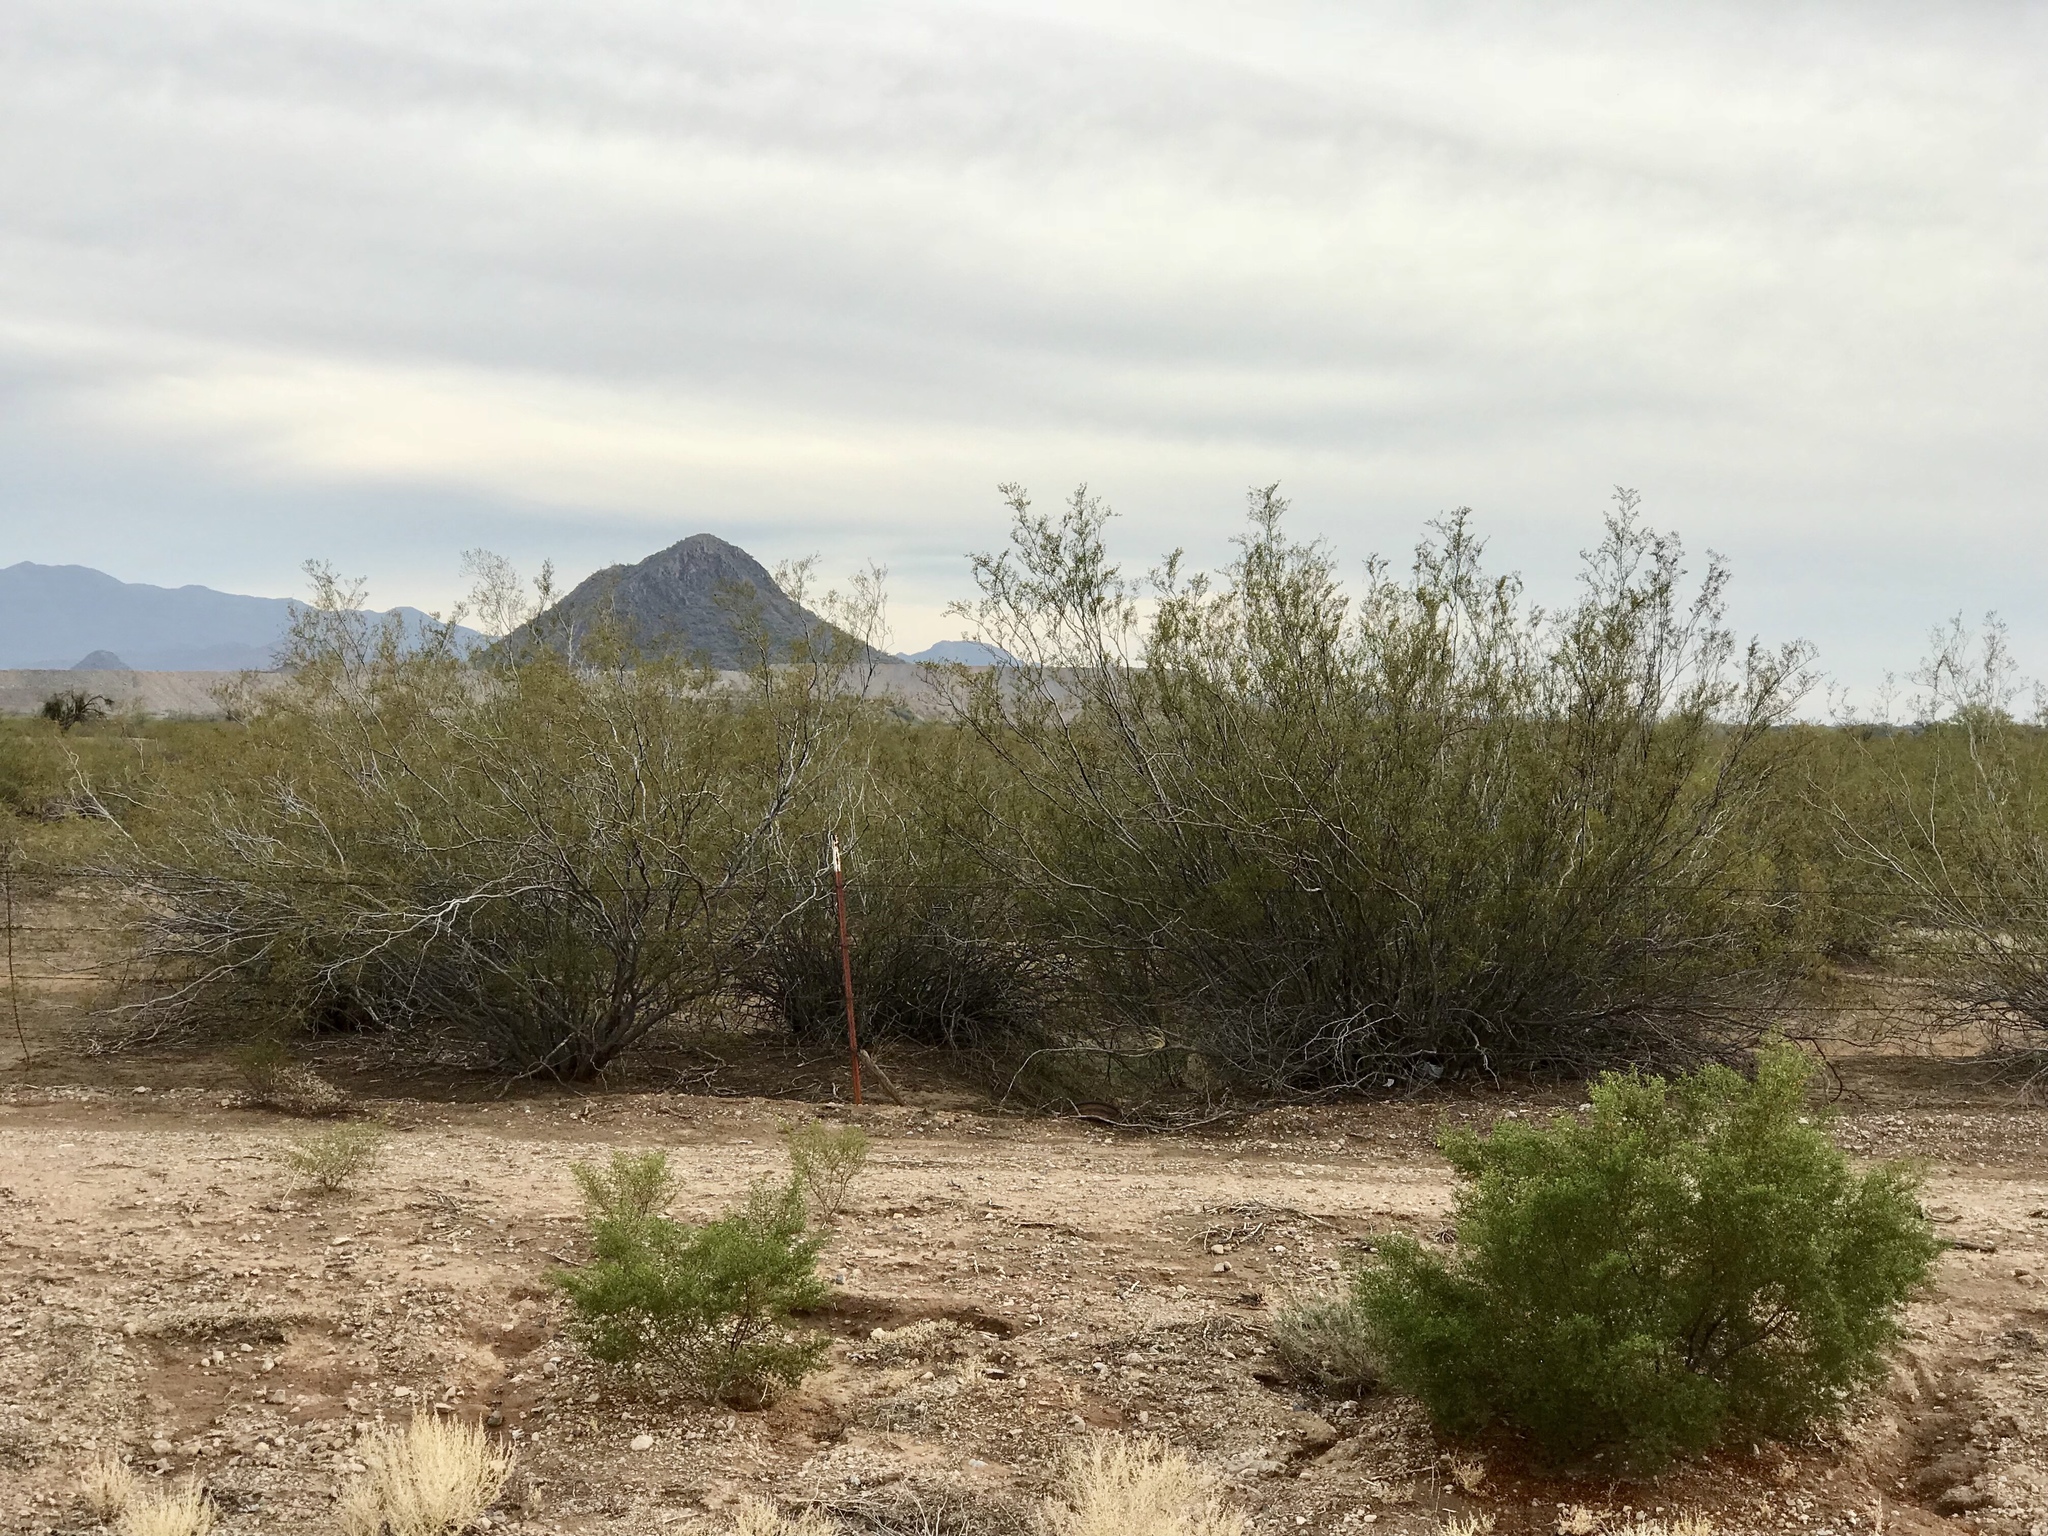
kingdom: Plantae
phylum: Tracheophyta
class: Magnoliopsida
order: Zygophyllales
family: Zygophyllaceae
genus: Larrea
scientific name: Larrea tridentata
